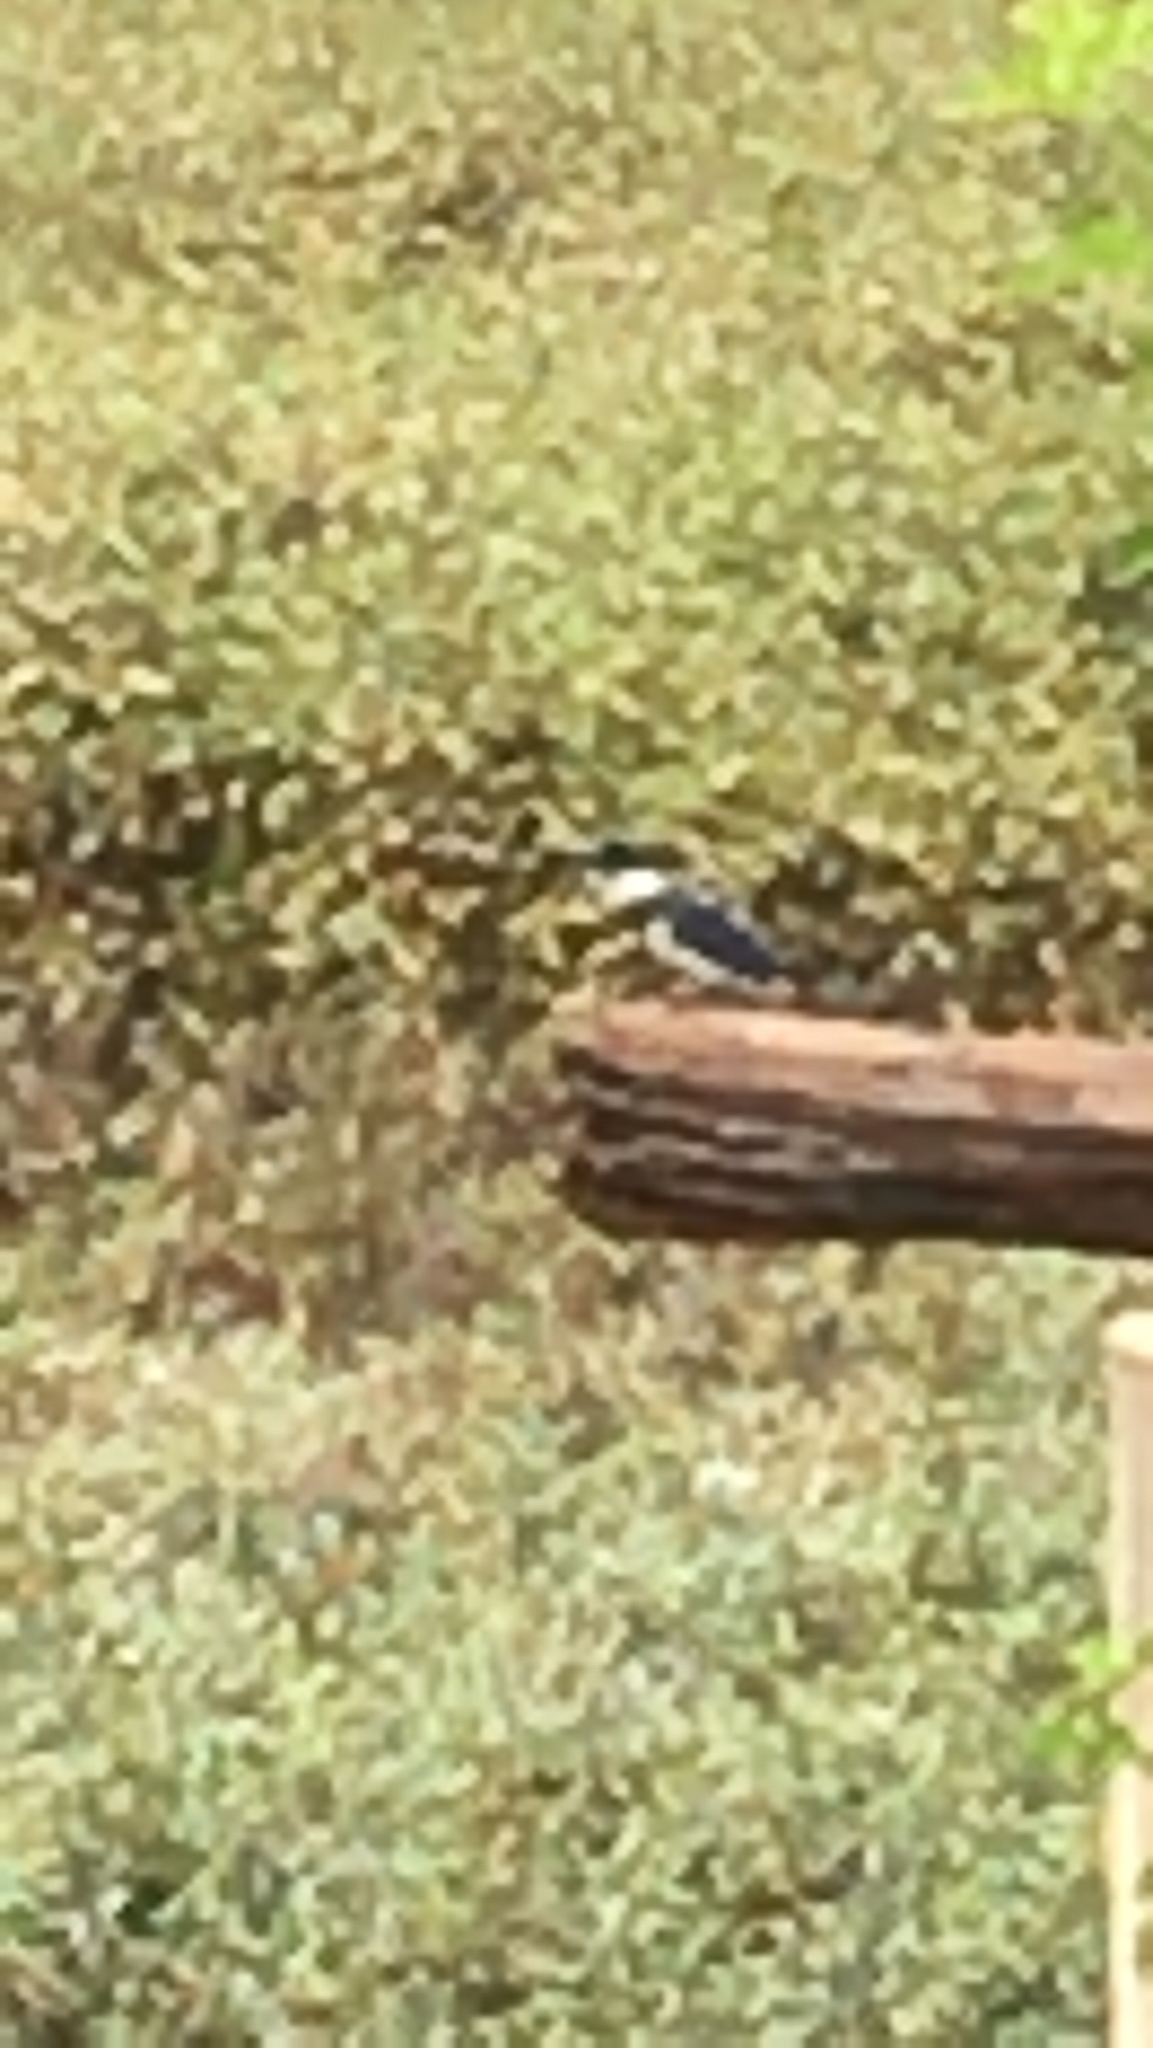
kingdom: Animalia
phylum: Chordata
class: Aves
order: Coraciiformes
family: Alcedinidae
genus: Megaceryle
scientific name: Megaceryle alcyon
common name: Belted kingfisher
